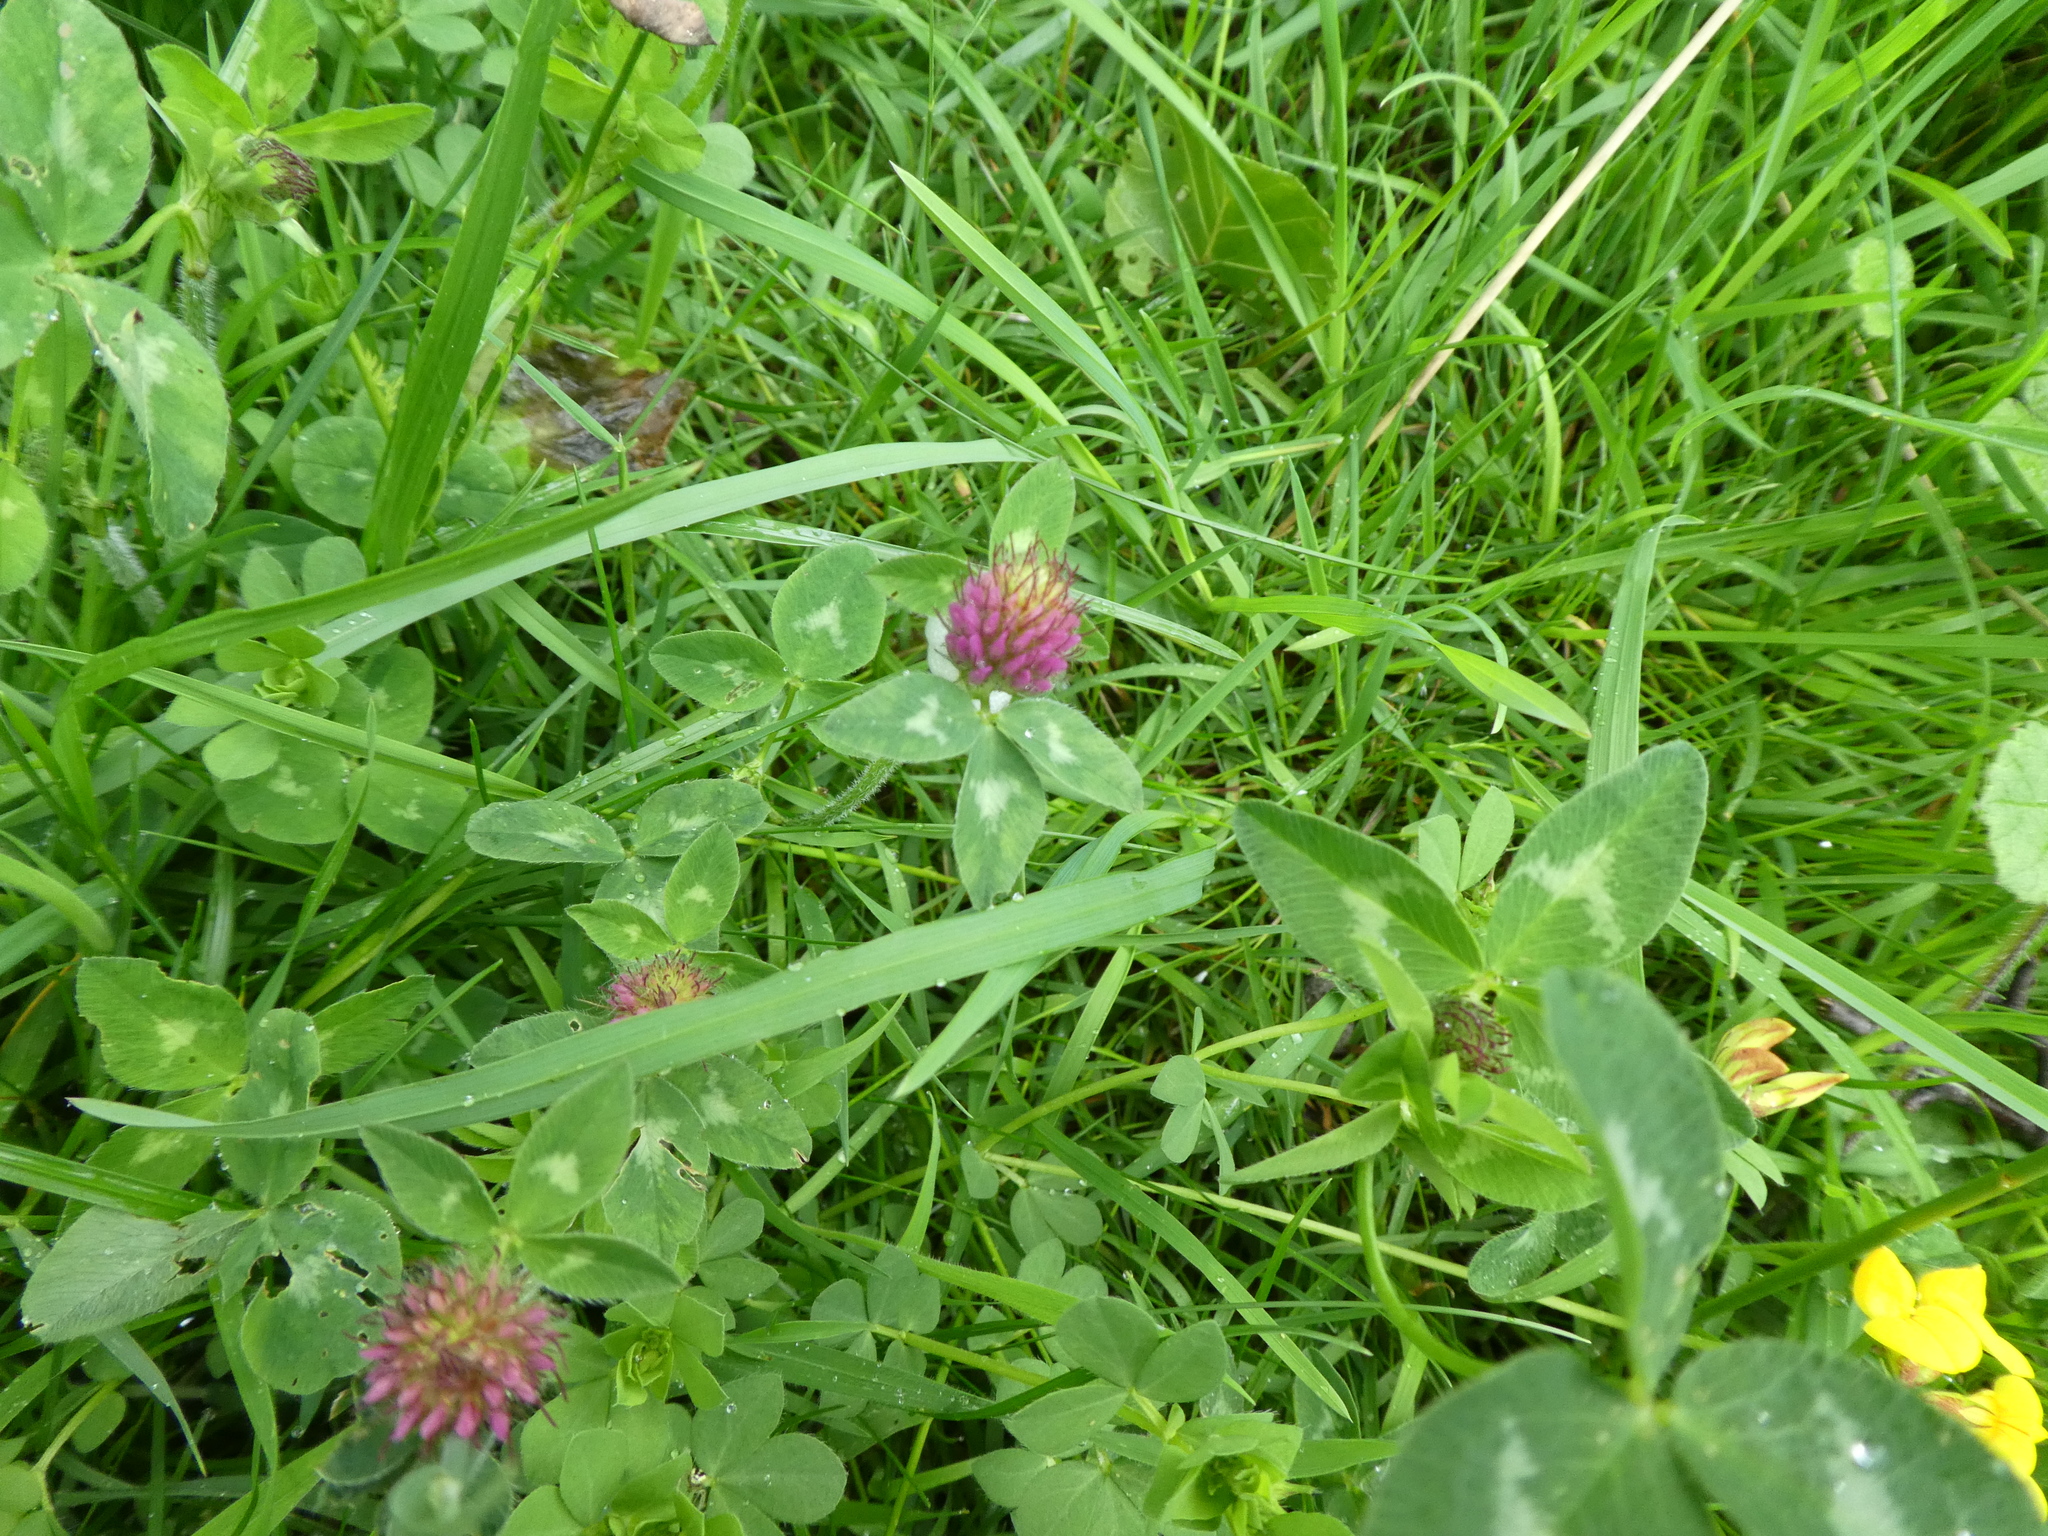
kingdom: Plantae
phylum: Tracheophyta
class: Magnoliopsida
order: Fabales
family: Fabaceae
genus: Trifolium
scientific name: Trifolium pratense
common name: Red clover
